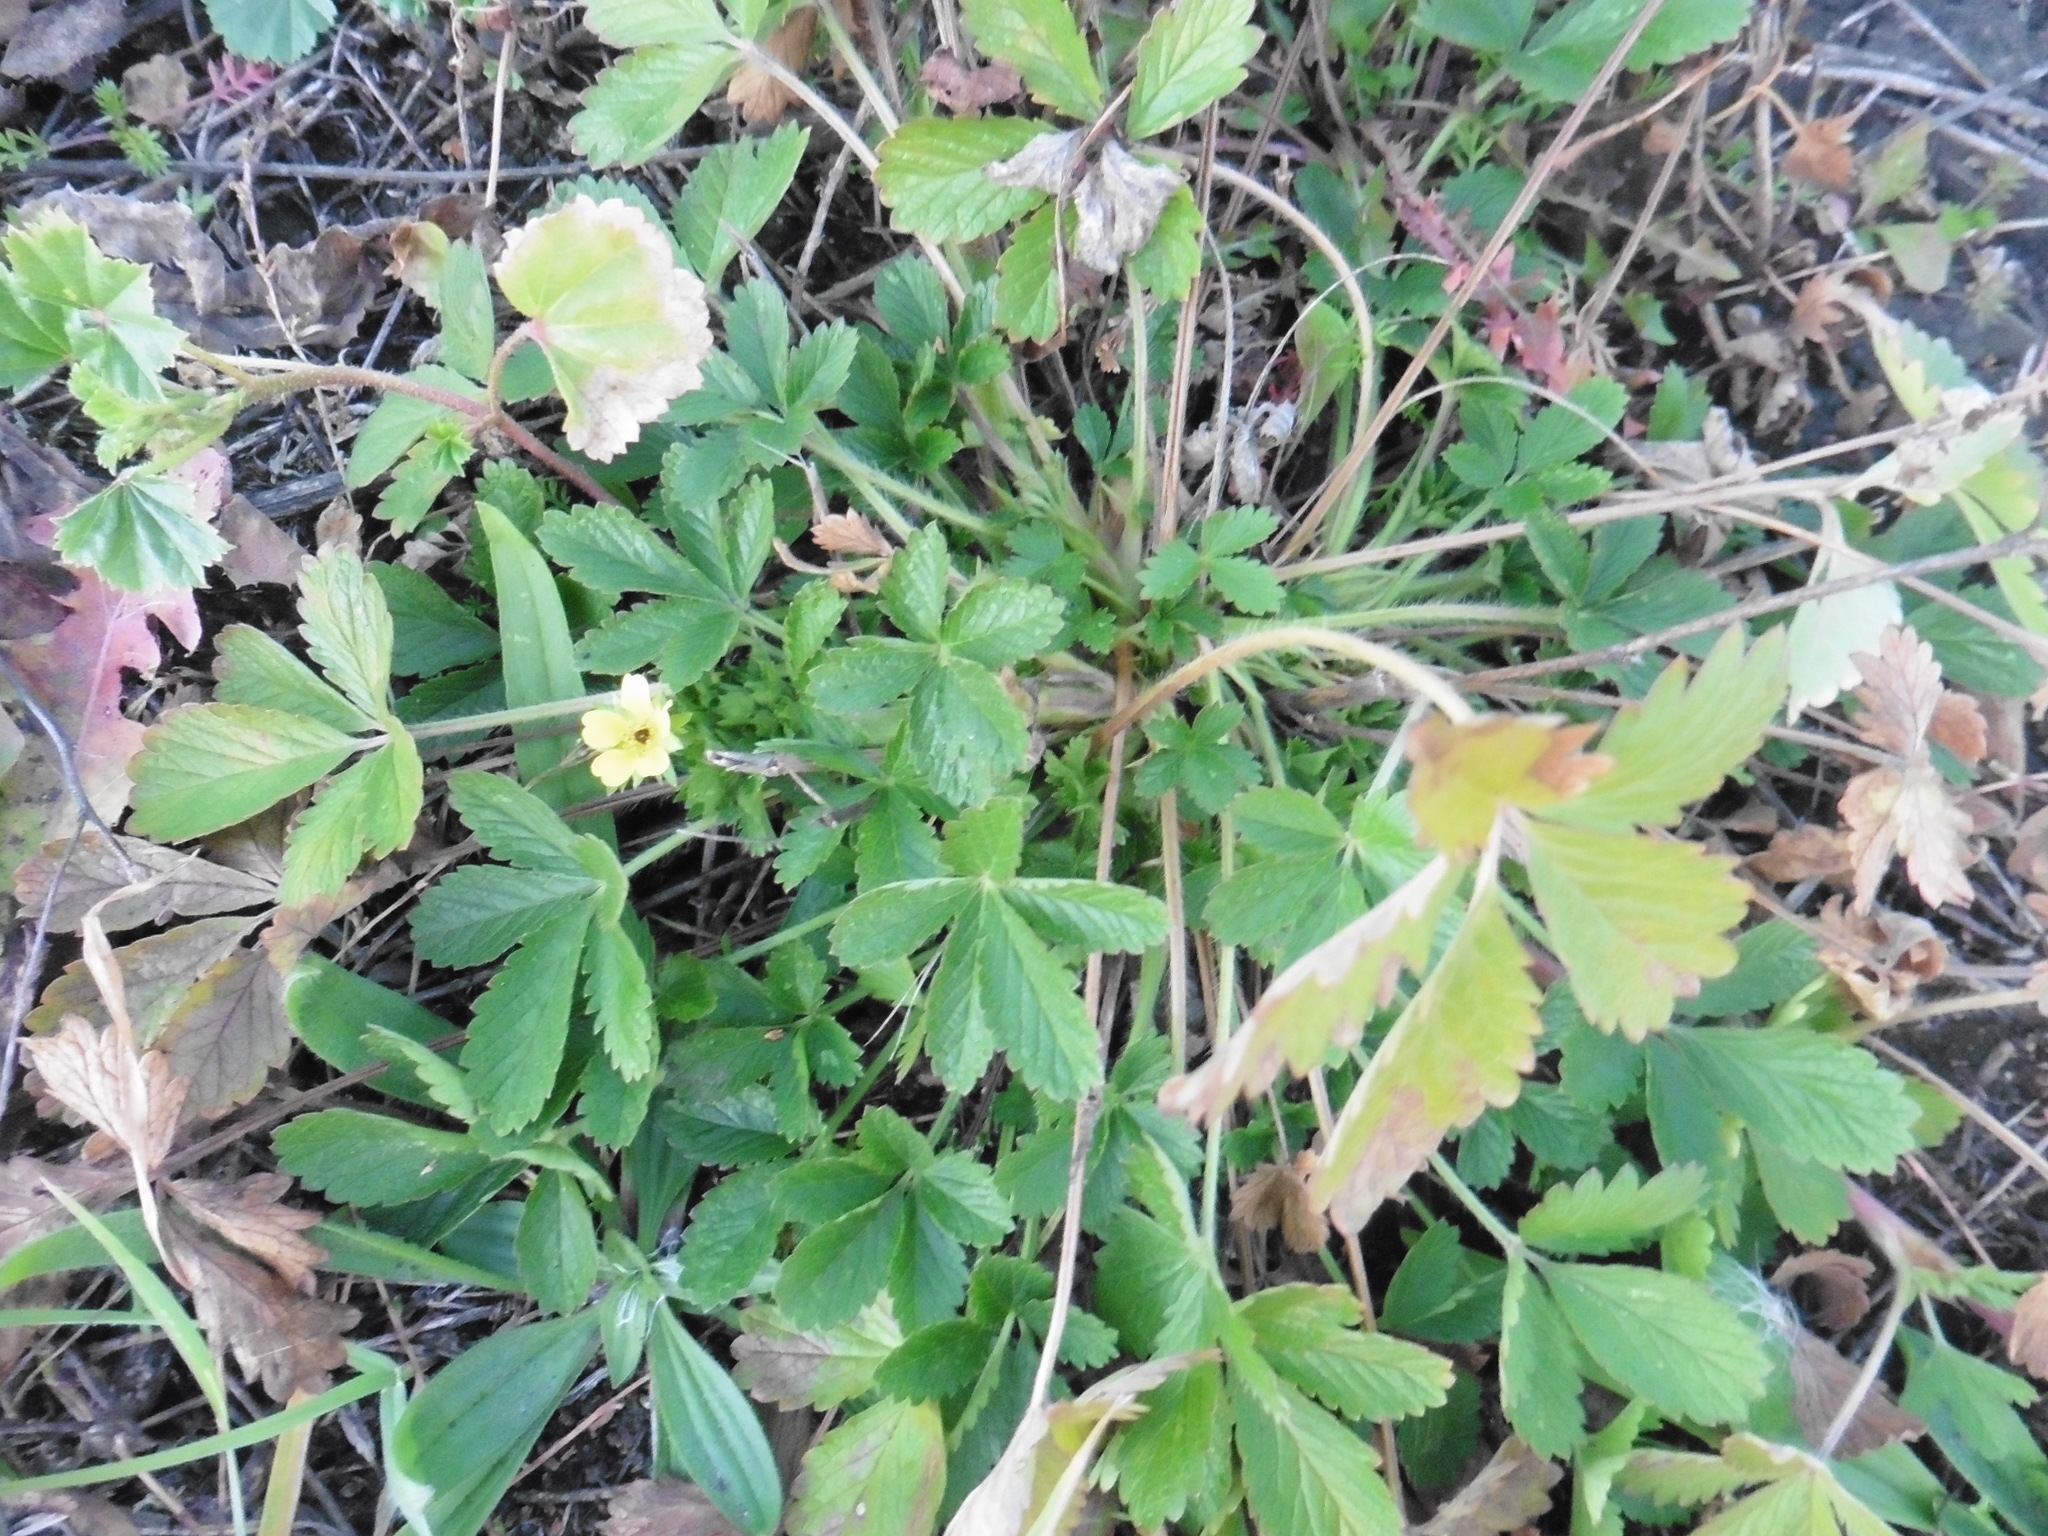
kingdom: Plantae
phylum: Tracheophyta
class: Magnoliopsida
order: Rosales
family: Rosaceae
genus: Potentilla
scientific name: Potentilla intermedia
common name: Downy cinquefoil
